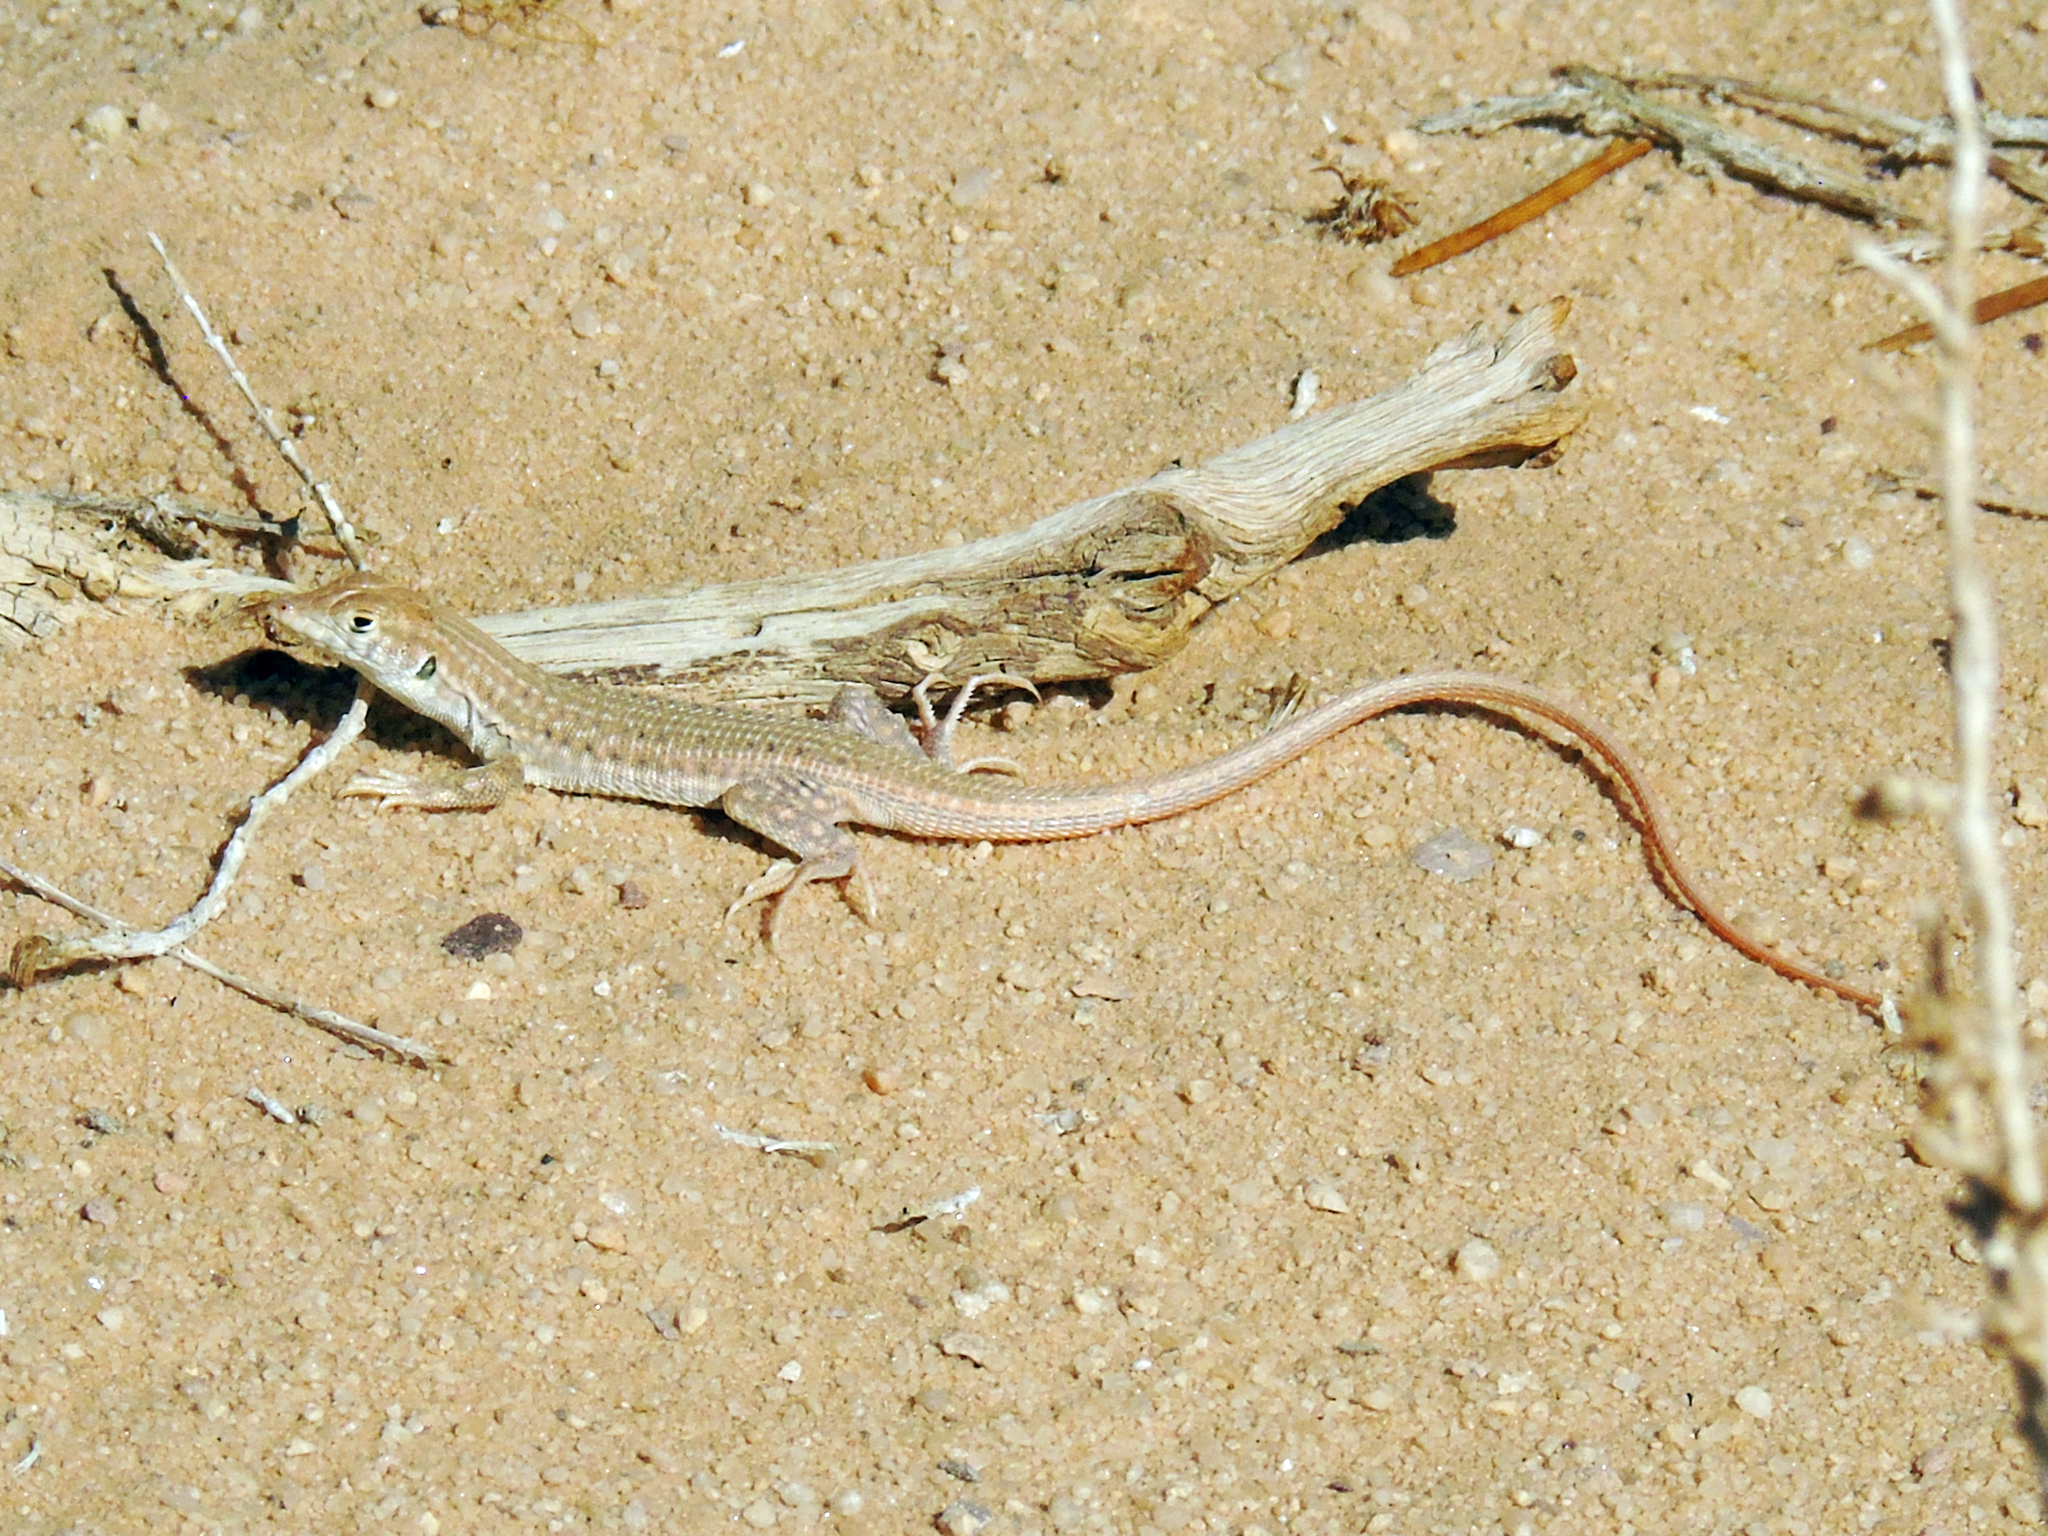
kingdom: Animalia
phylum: Chordata
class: Squamata
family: Lacertidae
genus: Acanthodactylus
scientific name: Acanthodactylus boskianus
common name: Bosc’s fringe-toed lizard
